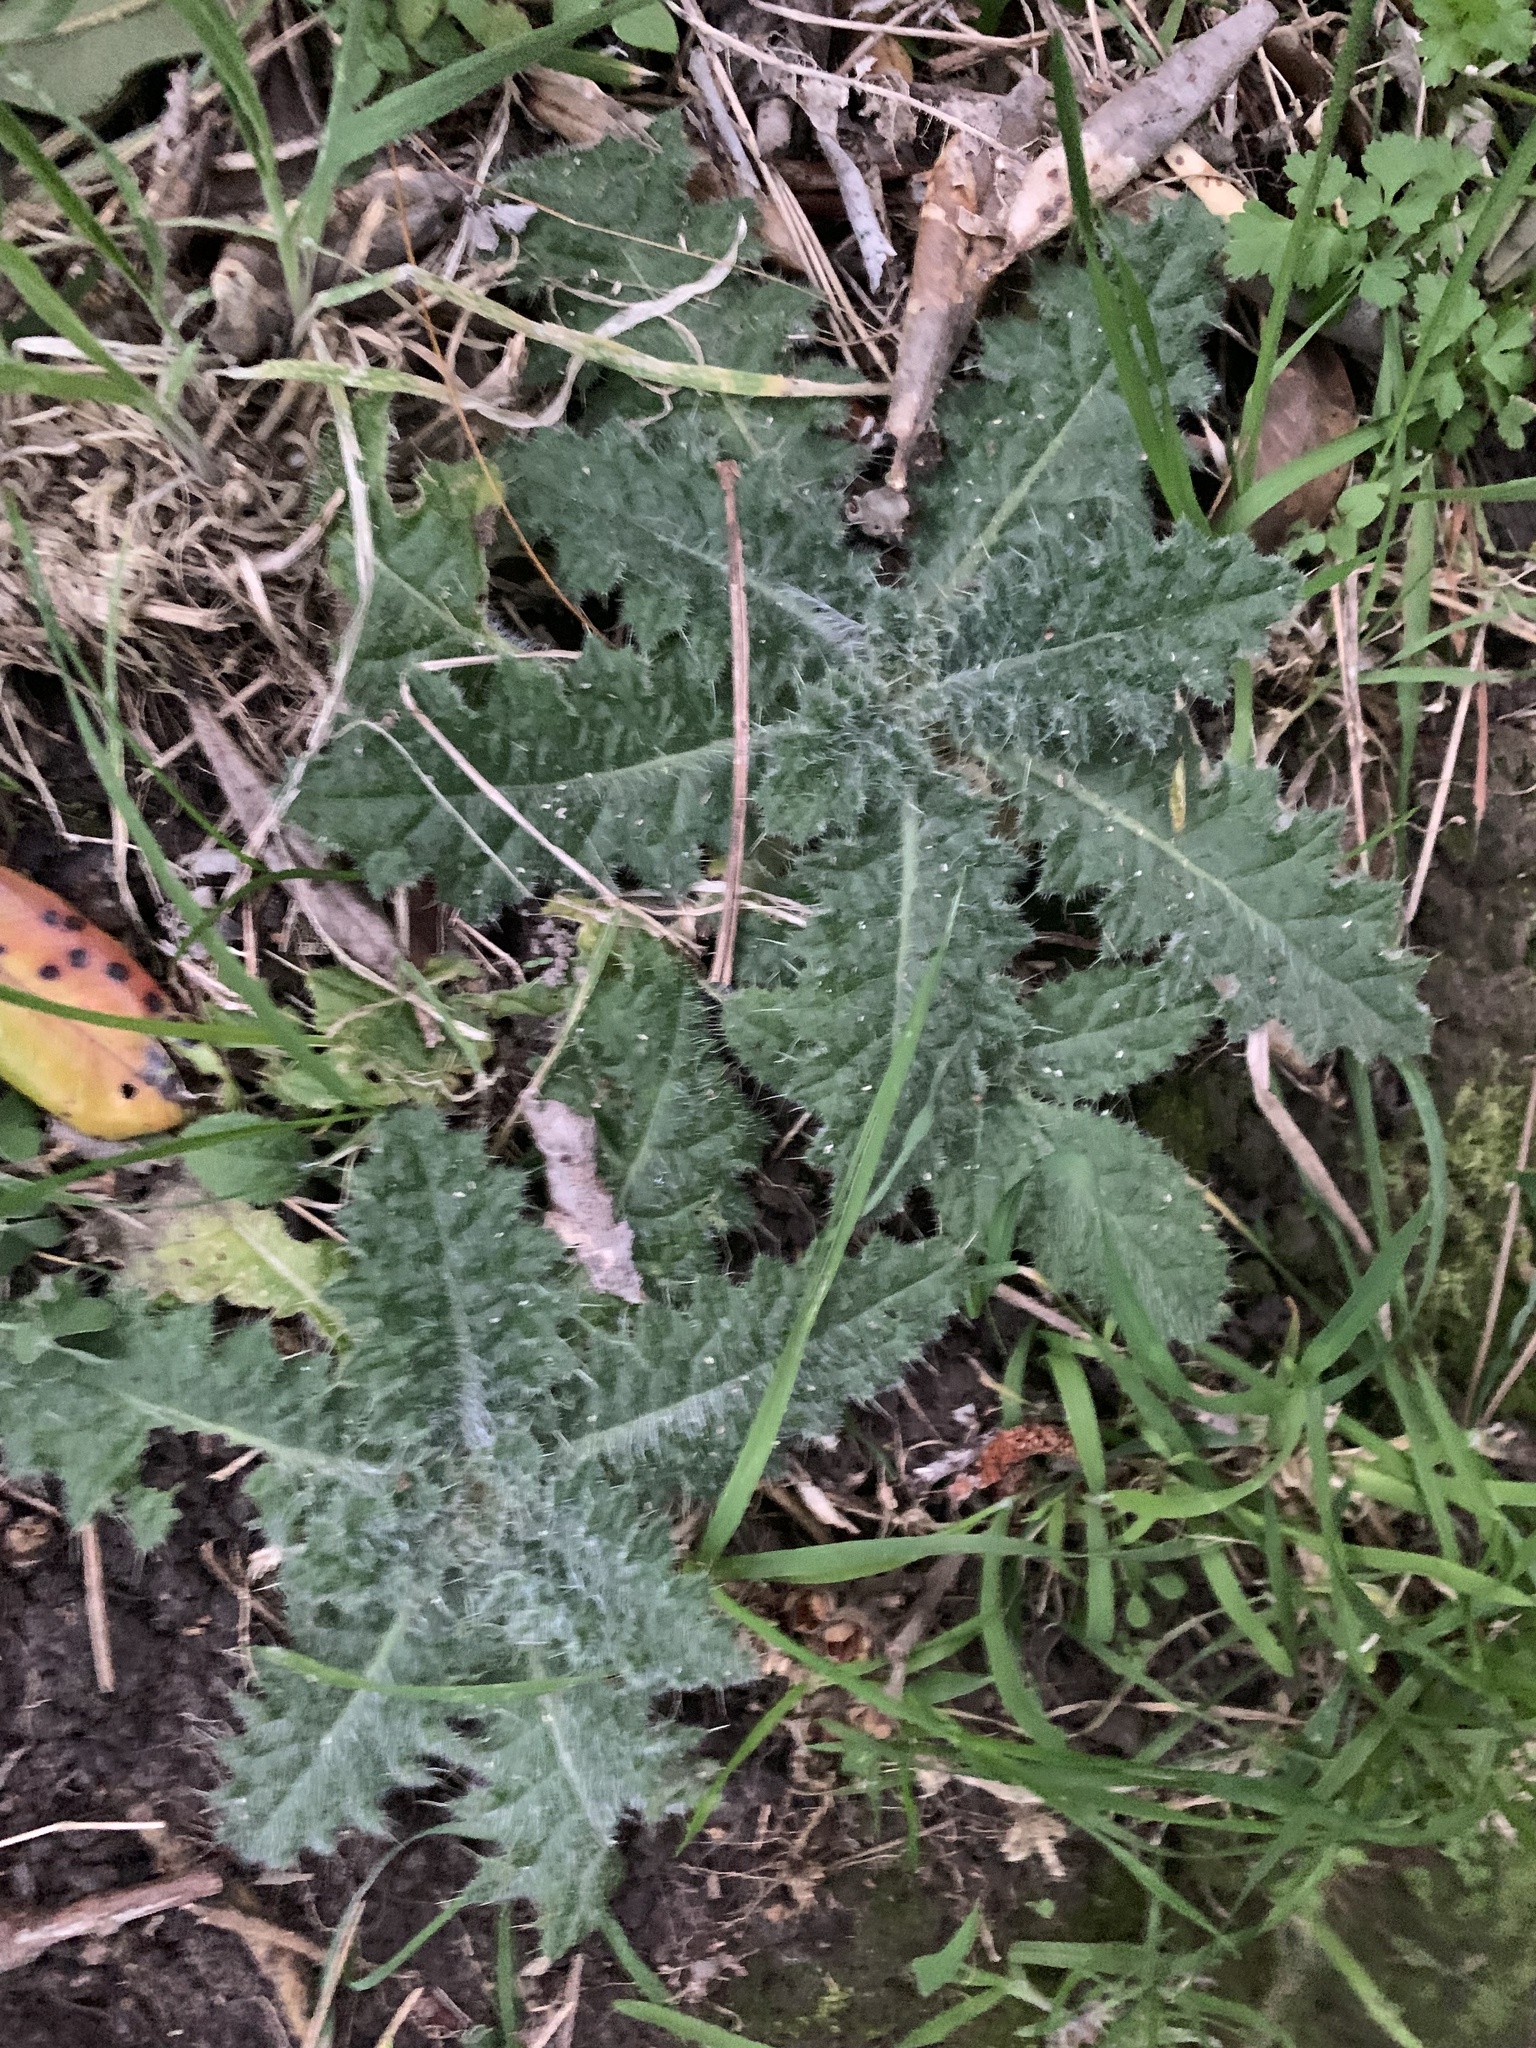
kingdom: Plantae
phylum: Tracheophyta
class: Magnoliopsida
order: Asterales
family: Asteraceae
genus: Cirsium
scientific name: Cirsium vulgare
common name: Bull thistle
